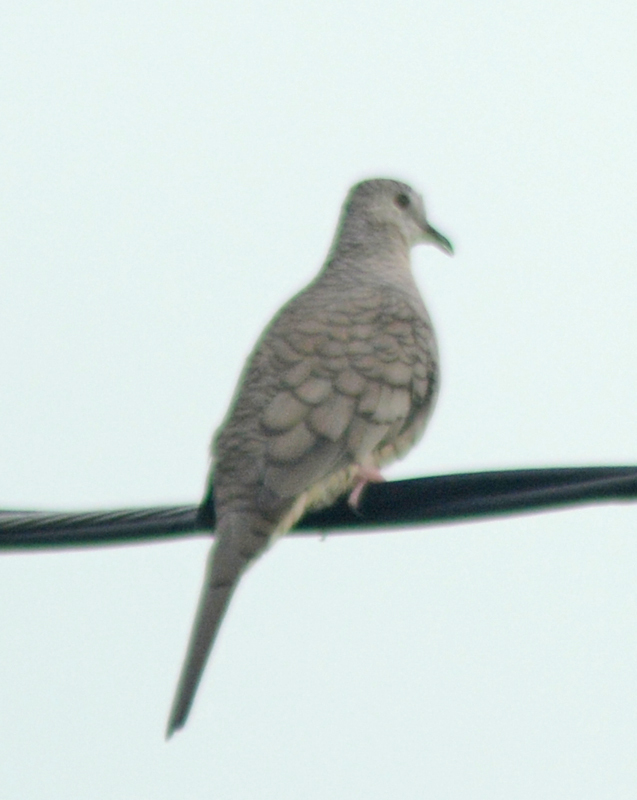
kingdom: Animalia
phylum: Chordata
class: Aves
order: Columbiformes
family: Columbidae
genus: Columbina
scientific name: Columbina inca
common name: Inca dove
